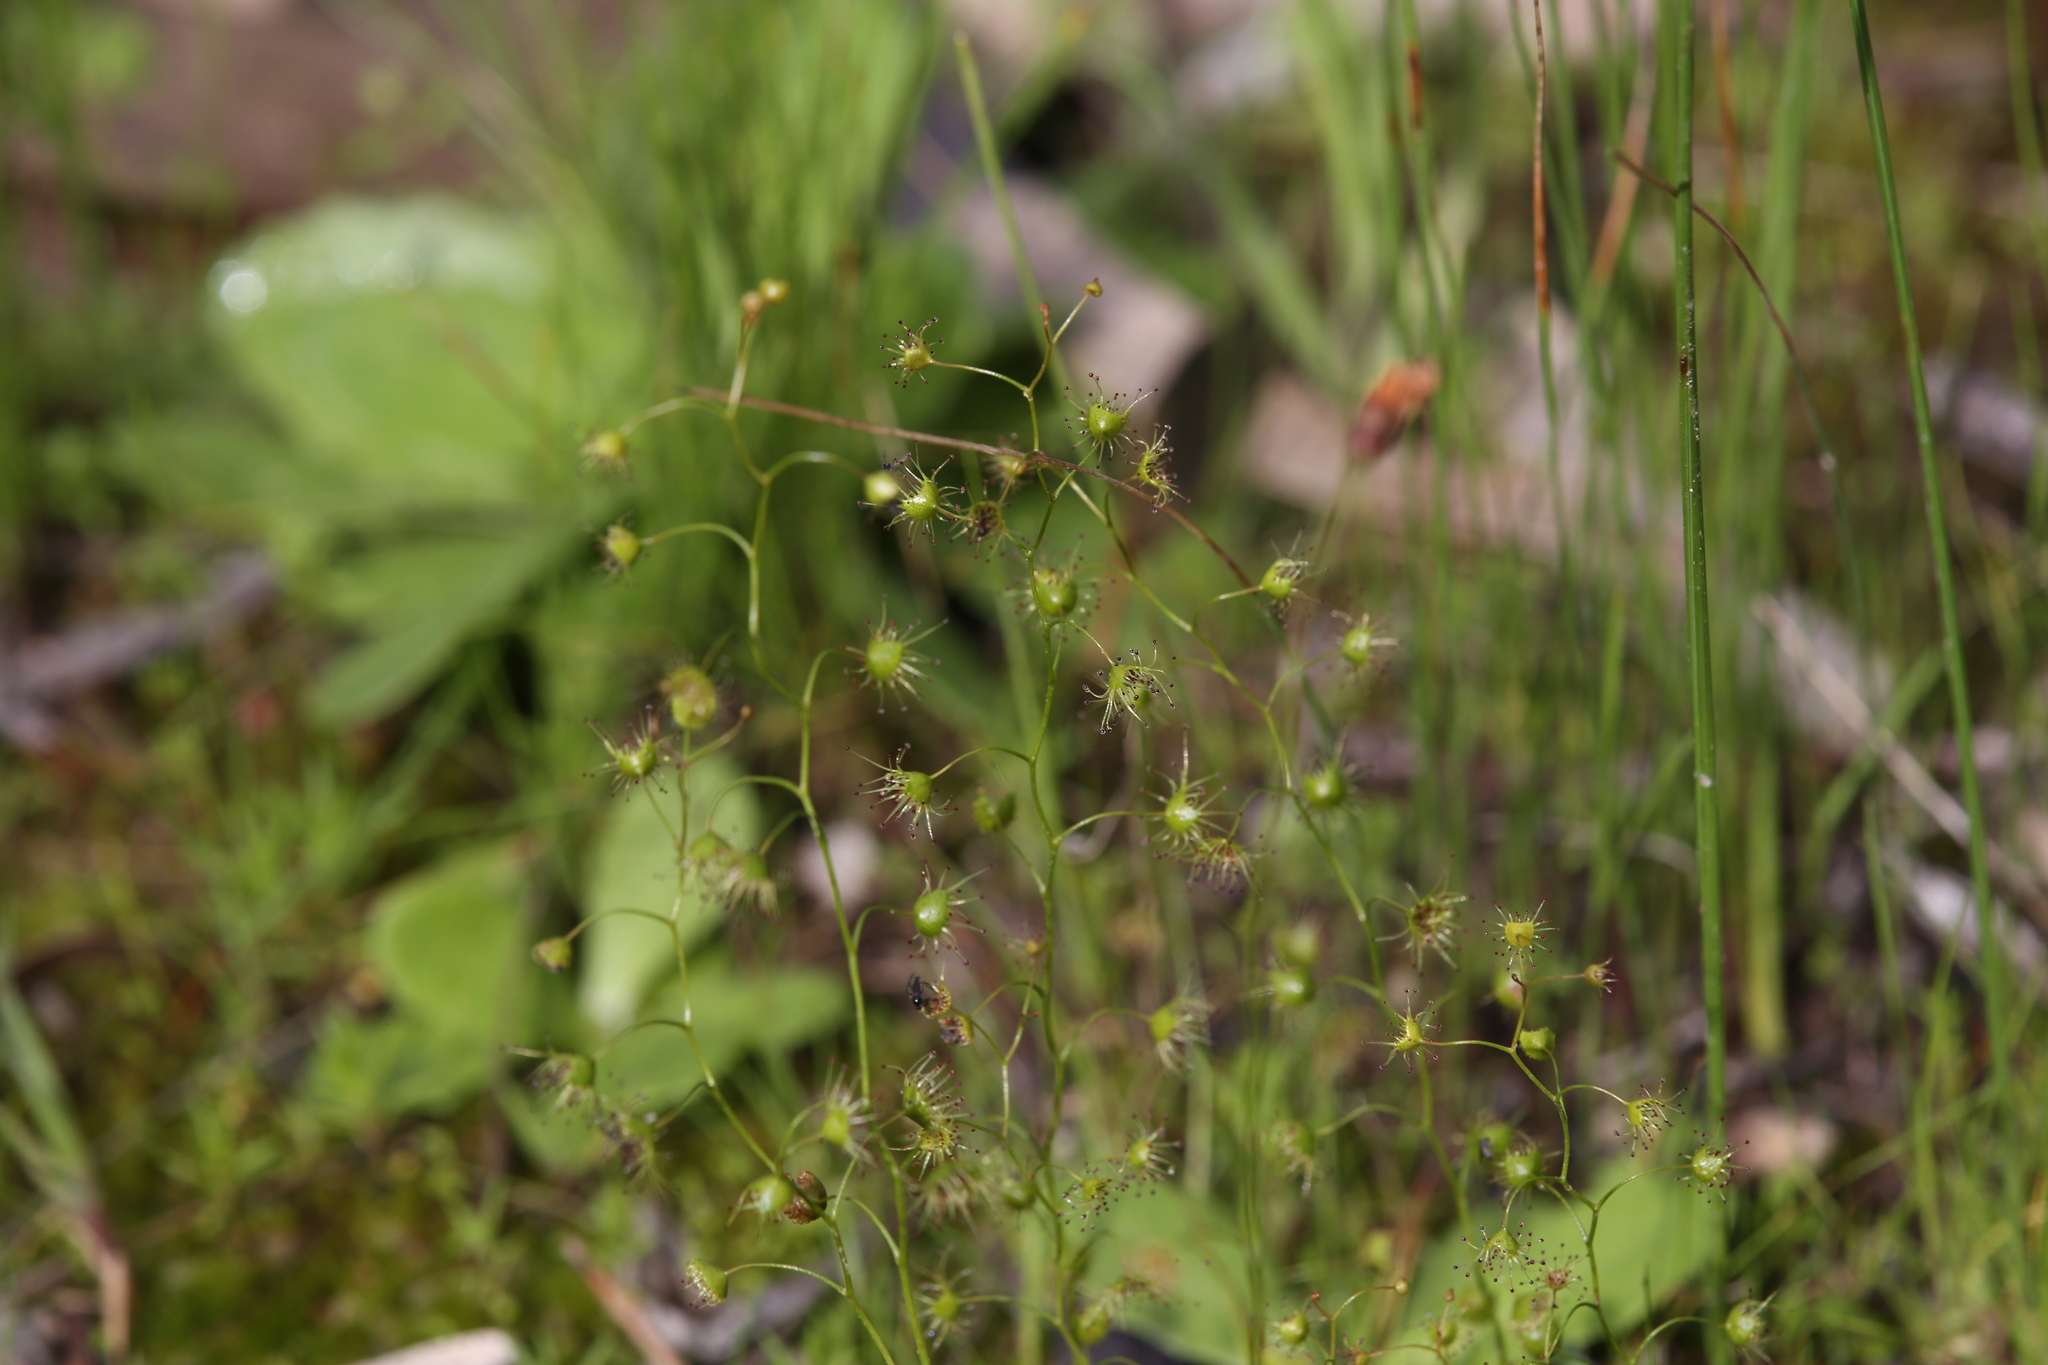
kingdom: Plantae
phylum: Tracheophyta
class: Magnoliopsida
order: Caryophyllales
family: Droseraceae
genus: Drosera
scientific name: Drosera heterophylla
